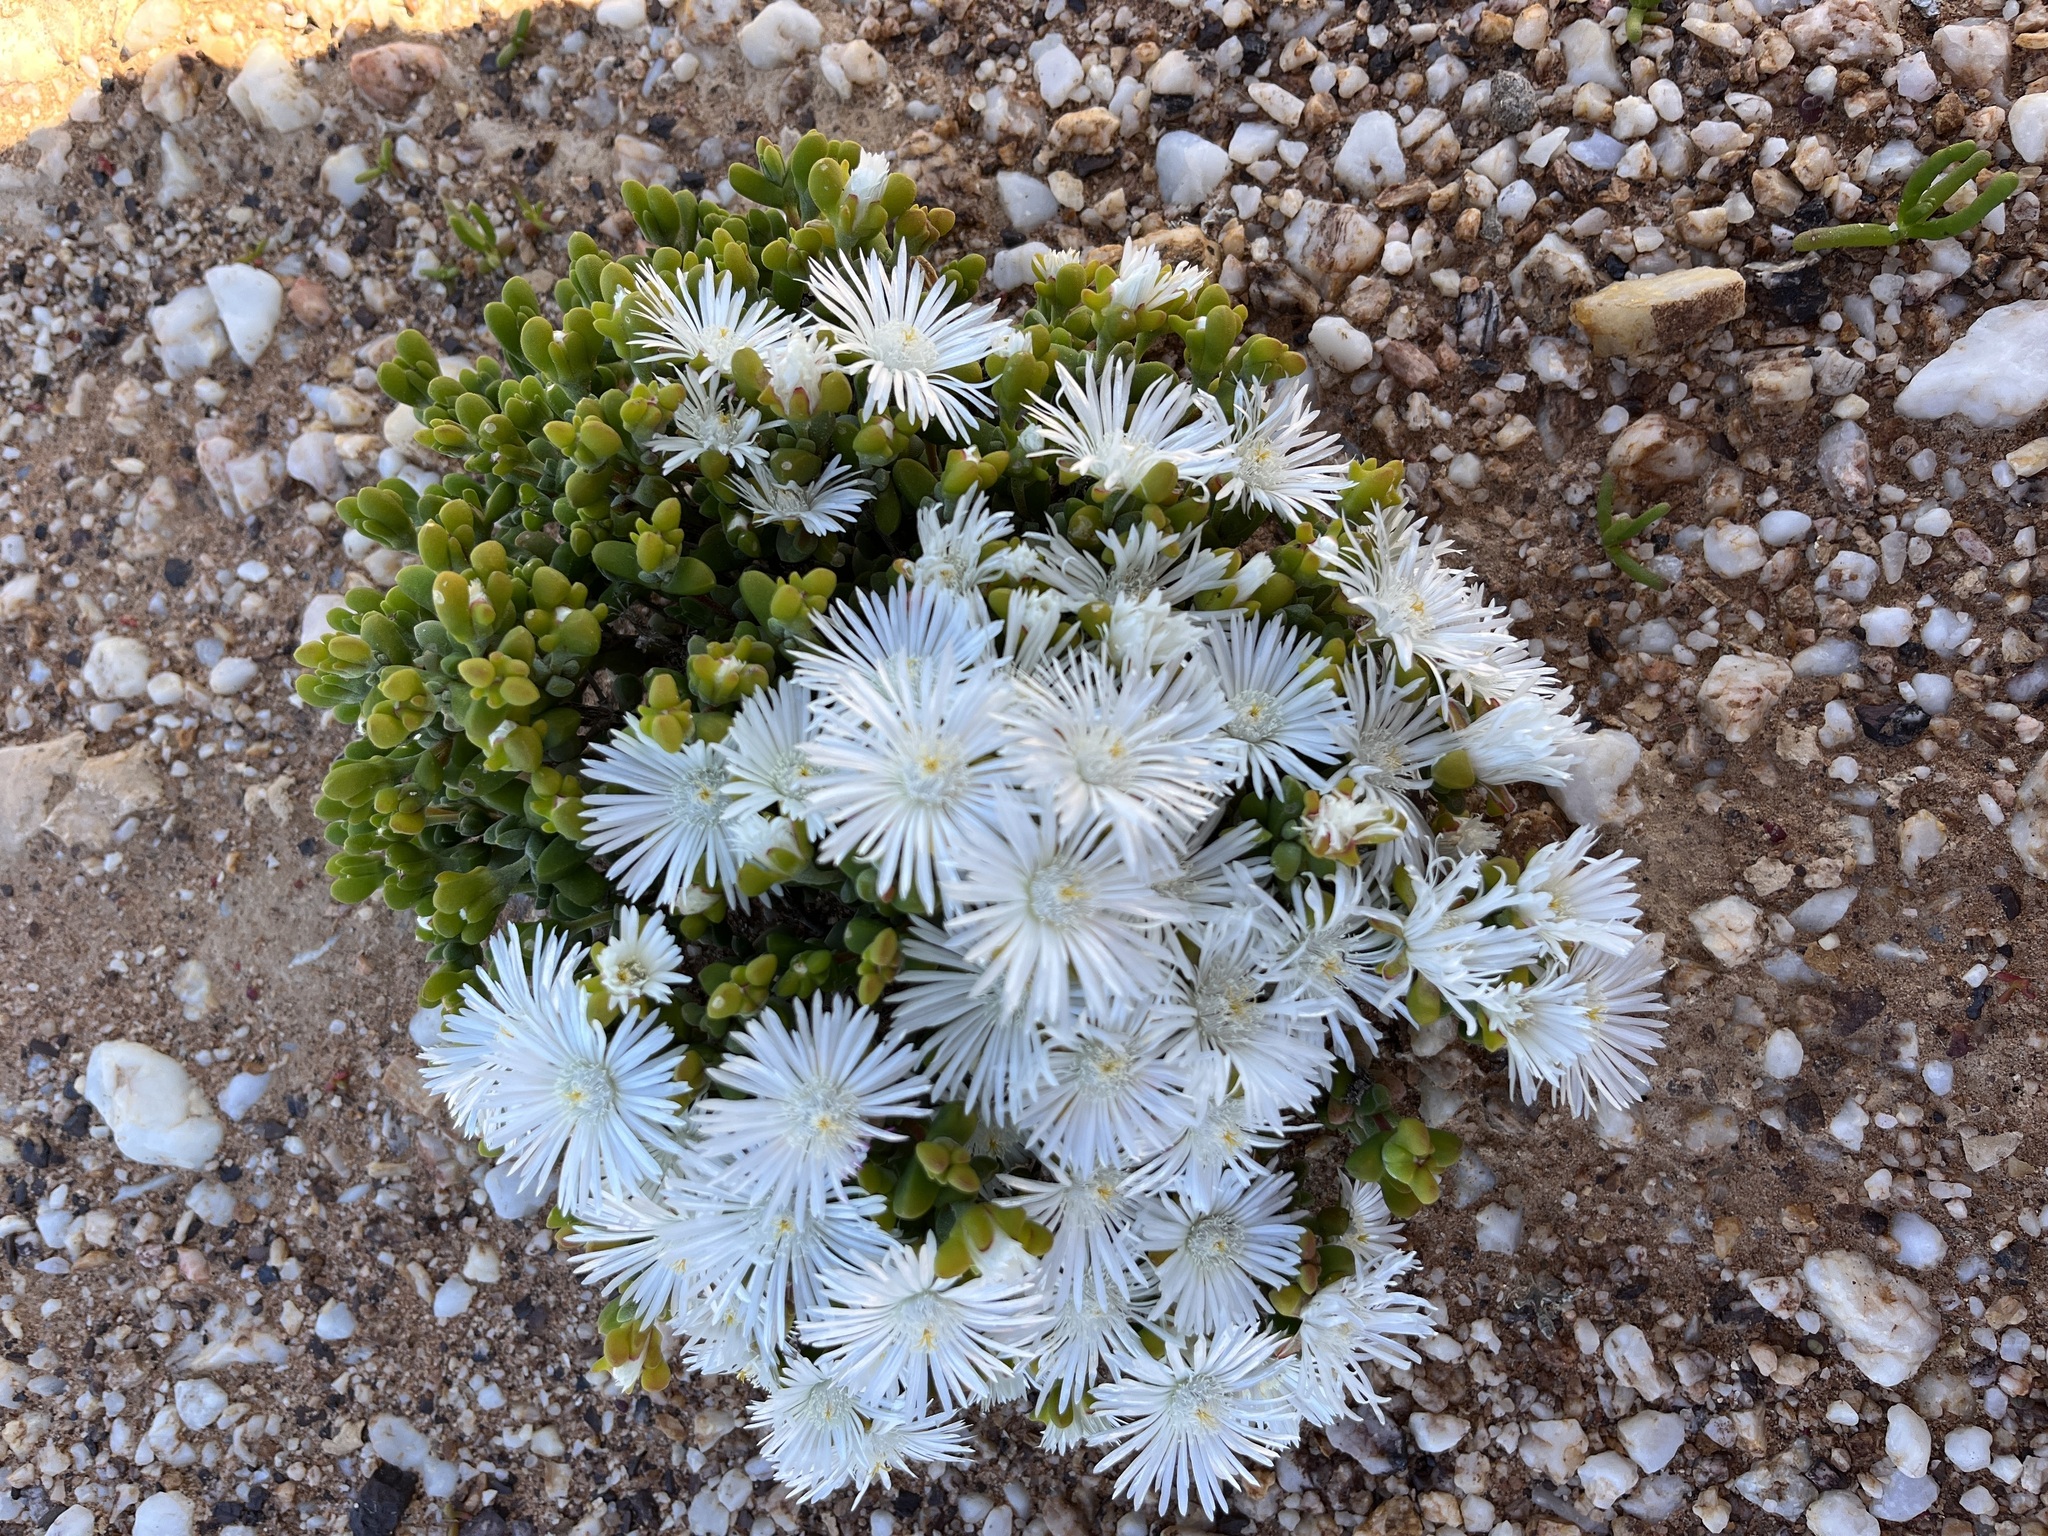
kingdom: Plantae
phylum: Tracheophyta
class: Magnoliopsida
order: Caryophyllales
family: Aizoaceae
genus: Drosanthemopsis
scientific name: Drosanthemopsis diversifolia
